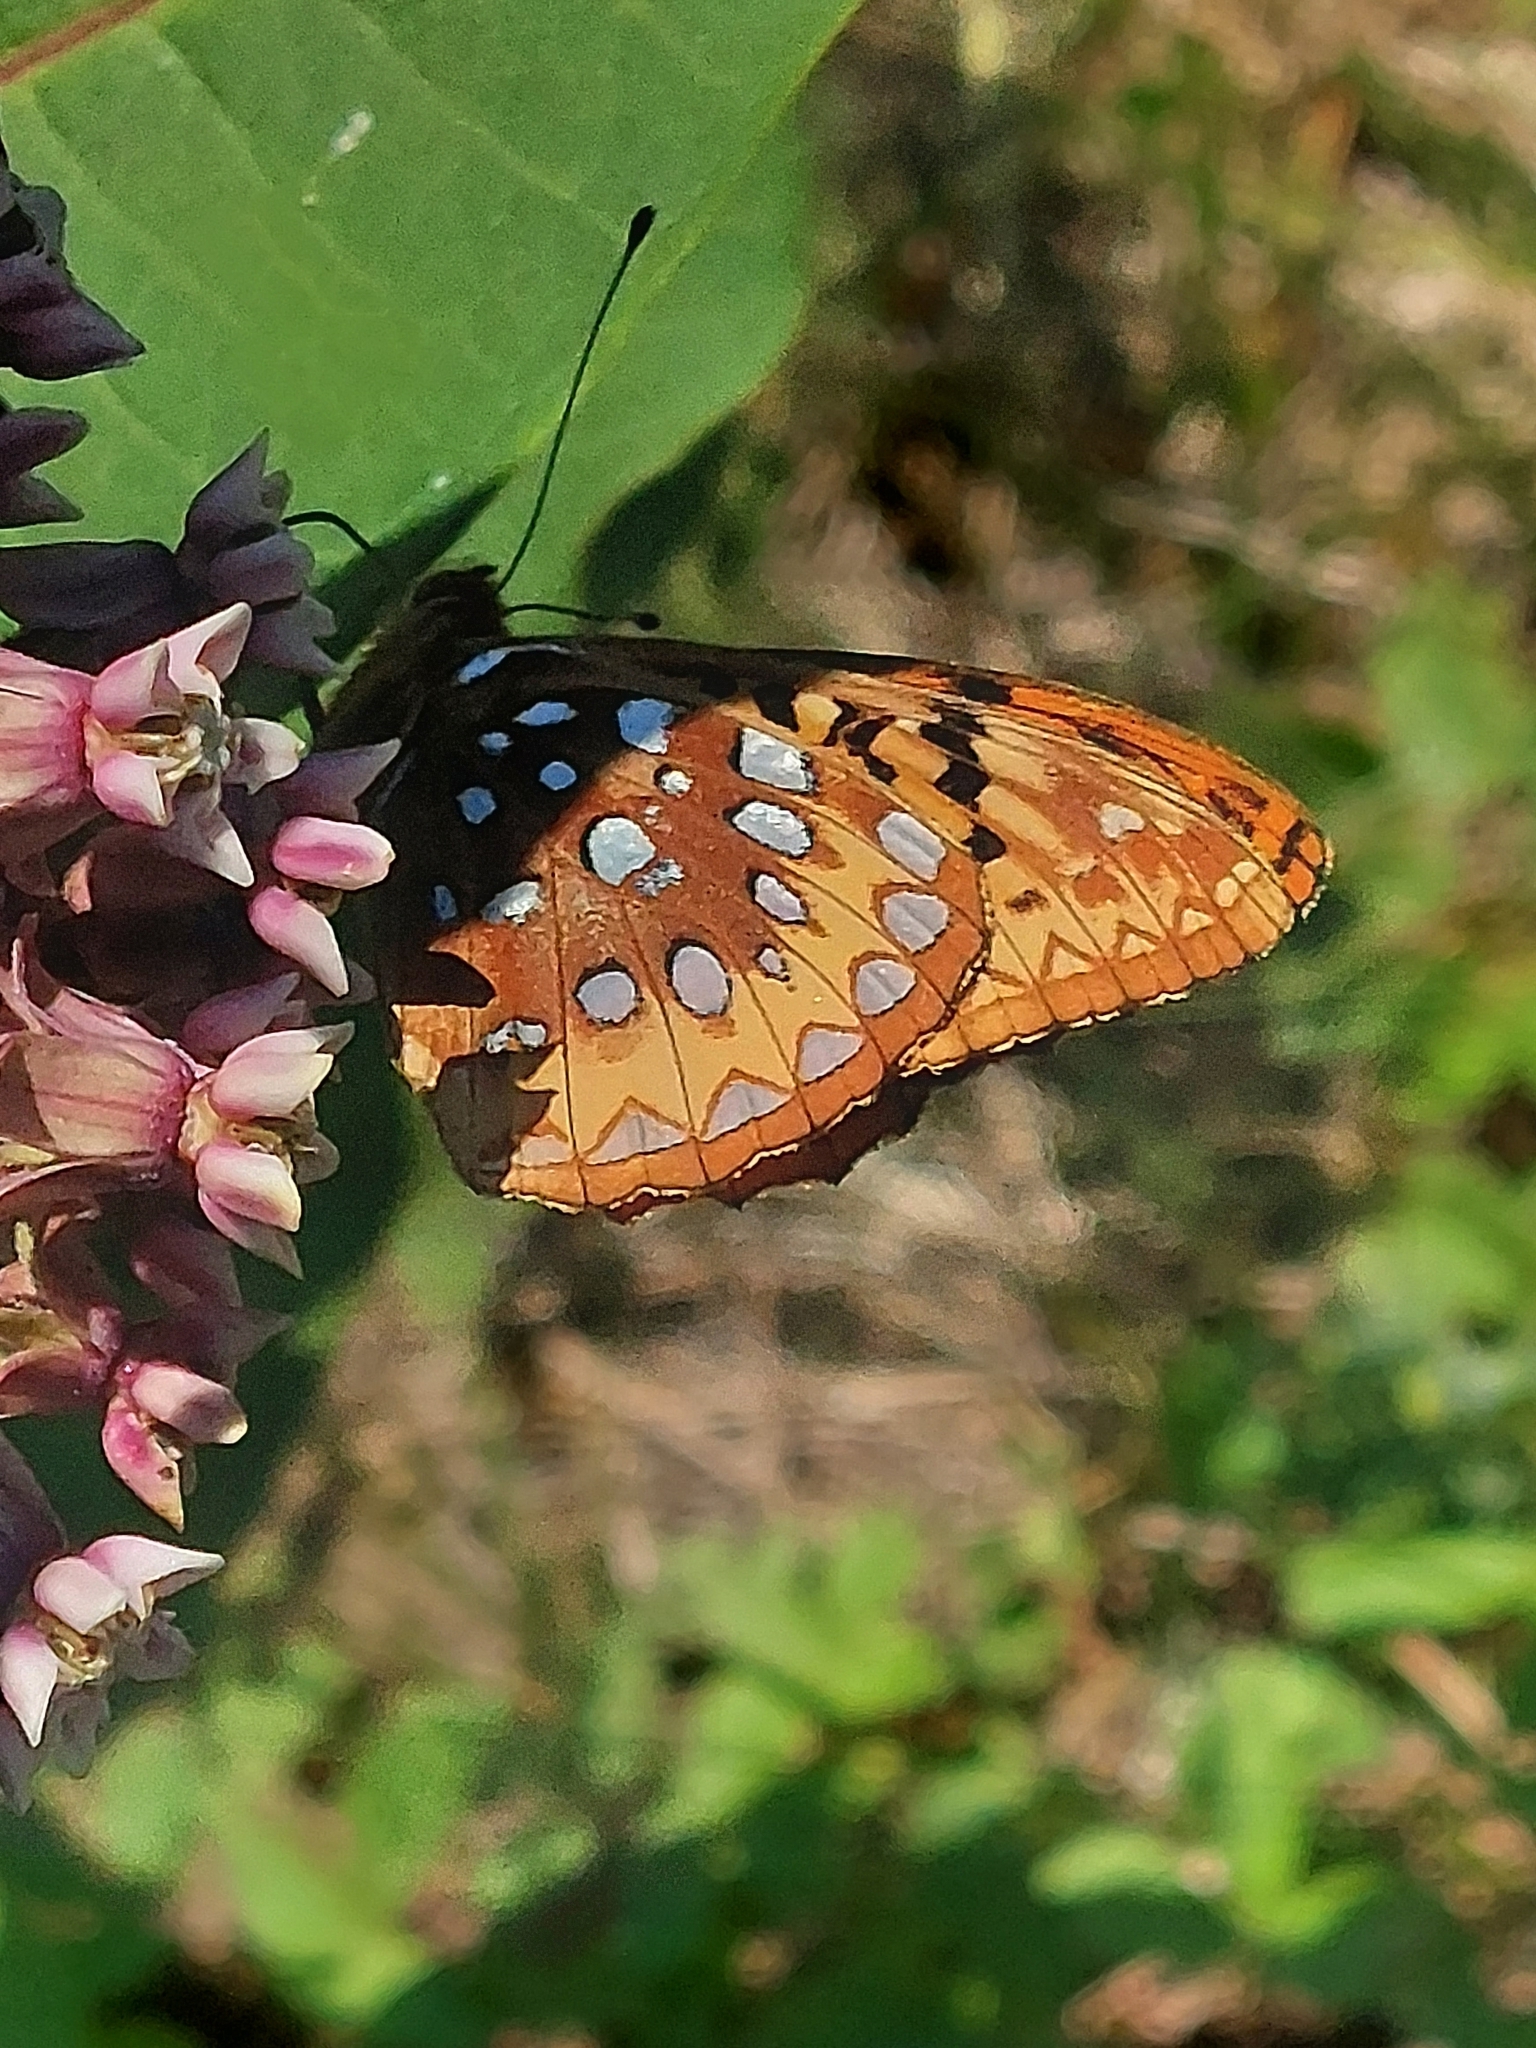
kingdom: Animalia
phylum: Arthropoda
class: Insecta
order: Lepidoptera
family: Nymphalidae
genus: Speyeria
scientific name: Speyeria cybele
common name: Great spangled fritillary
